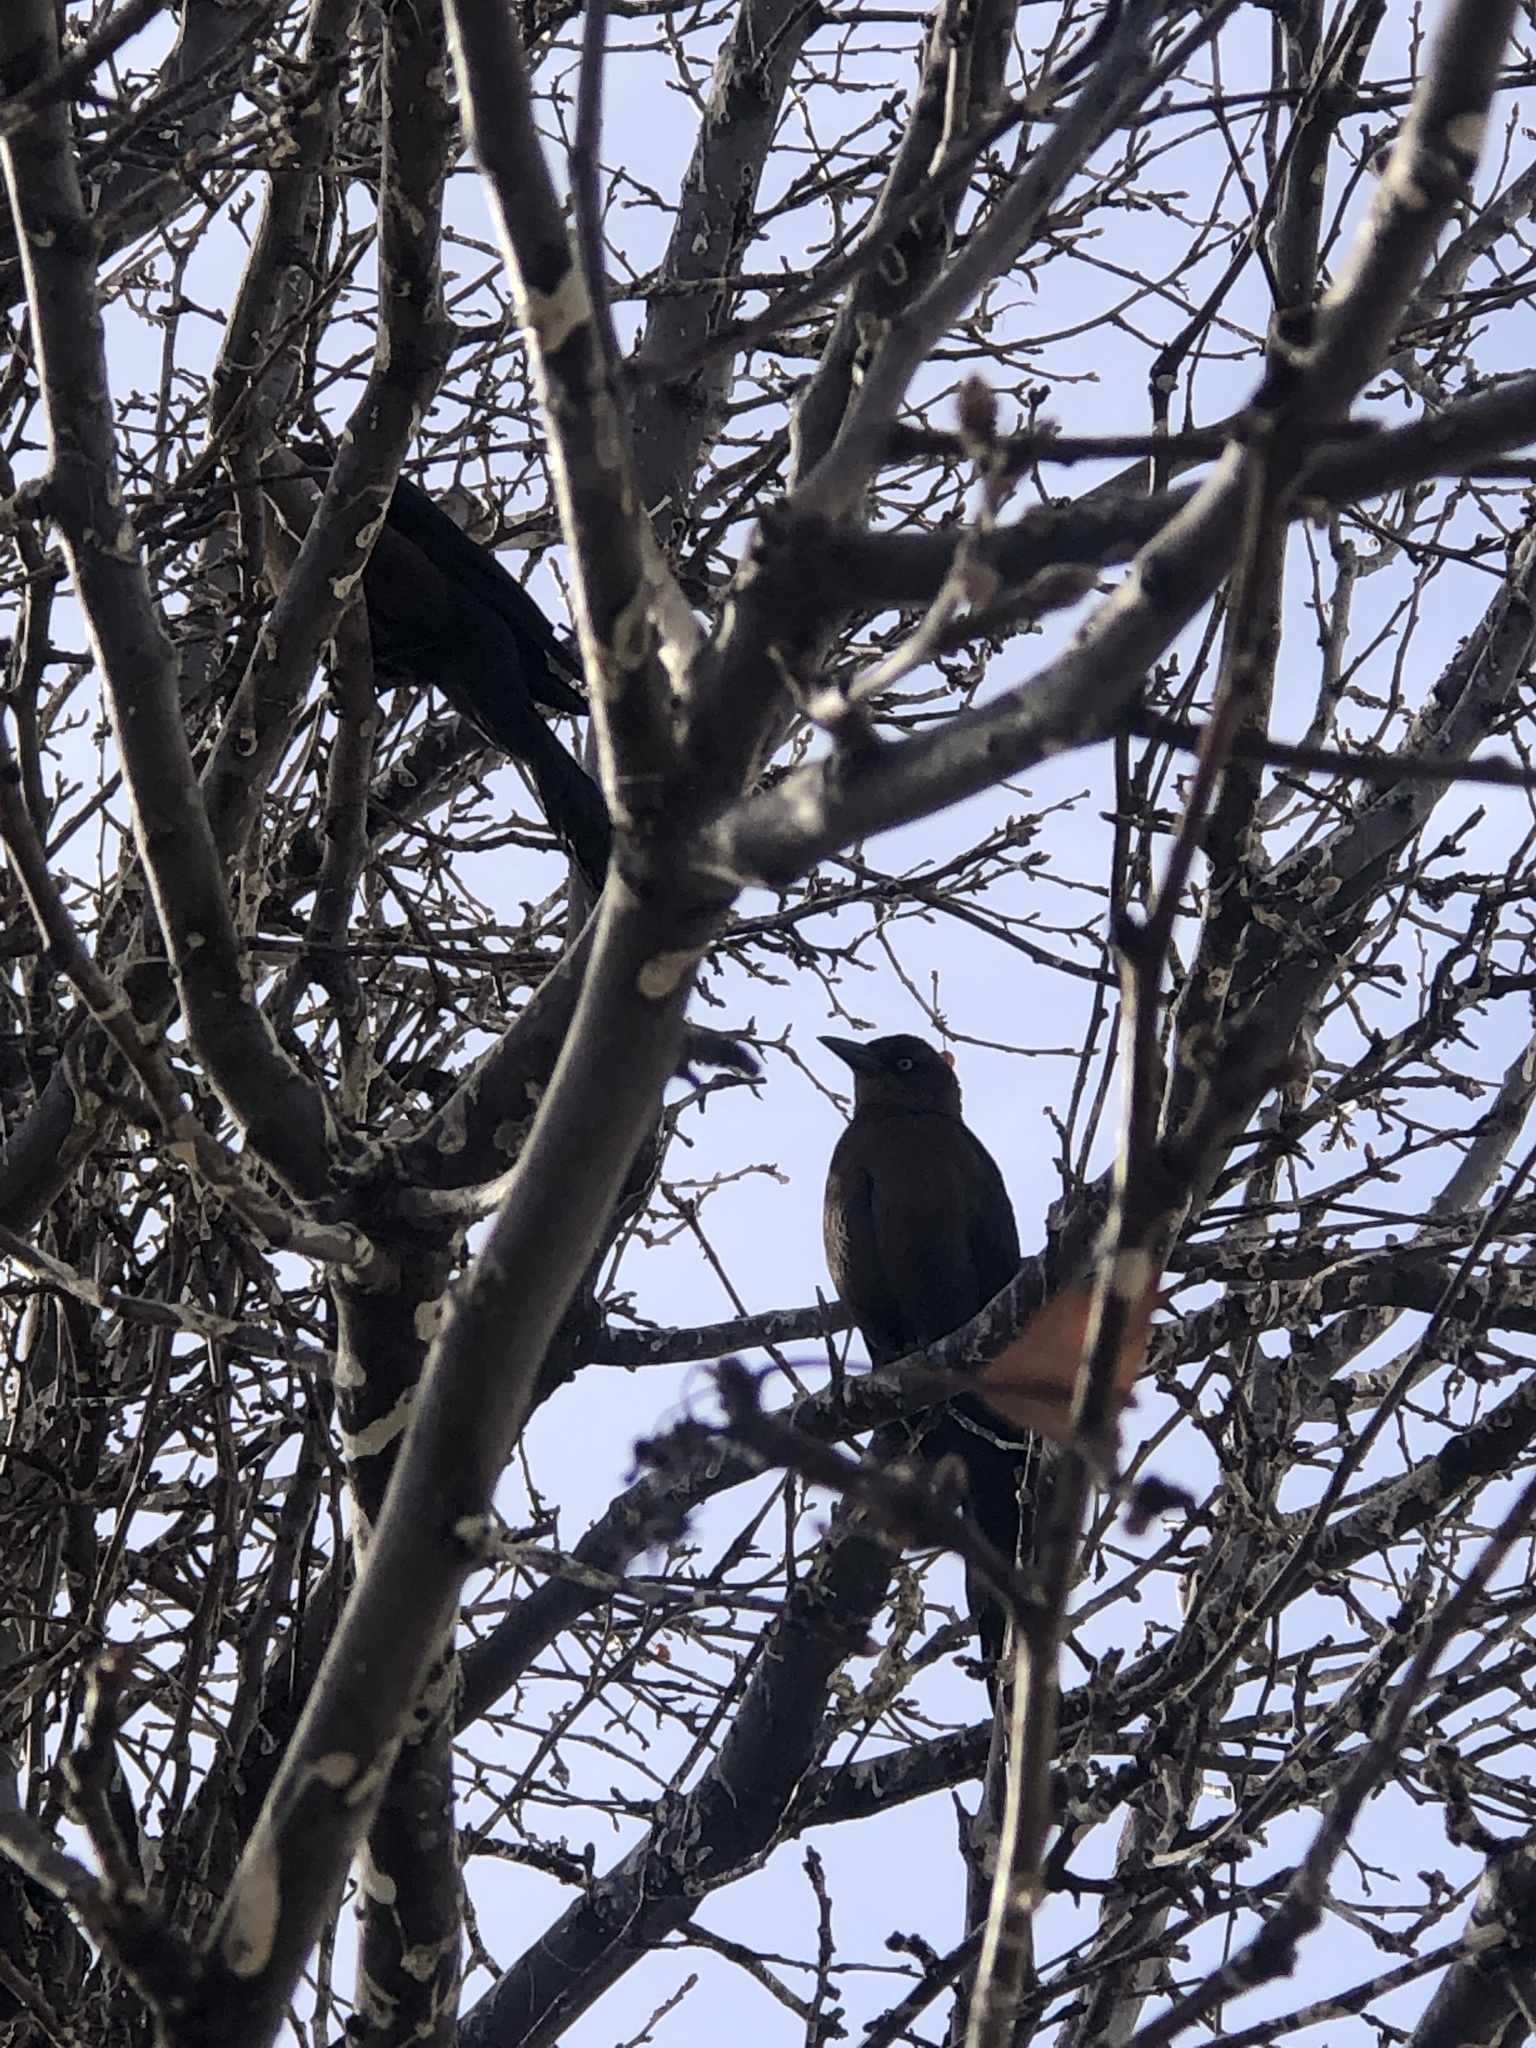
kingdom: Animalia
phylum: Chordata
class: Aves
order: Passeriformes
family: Icteridae
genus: Quiscalus
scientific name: Quiscalus mexicanus
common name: Great-tailed grackle
